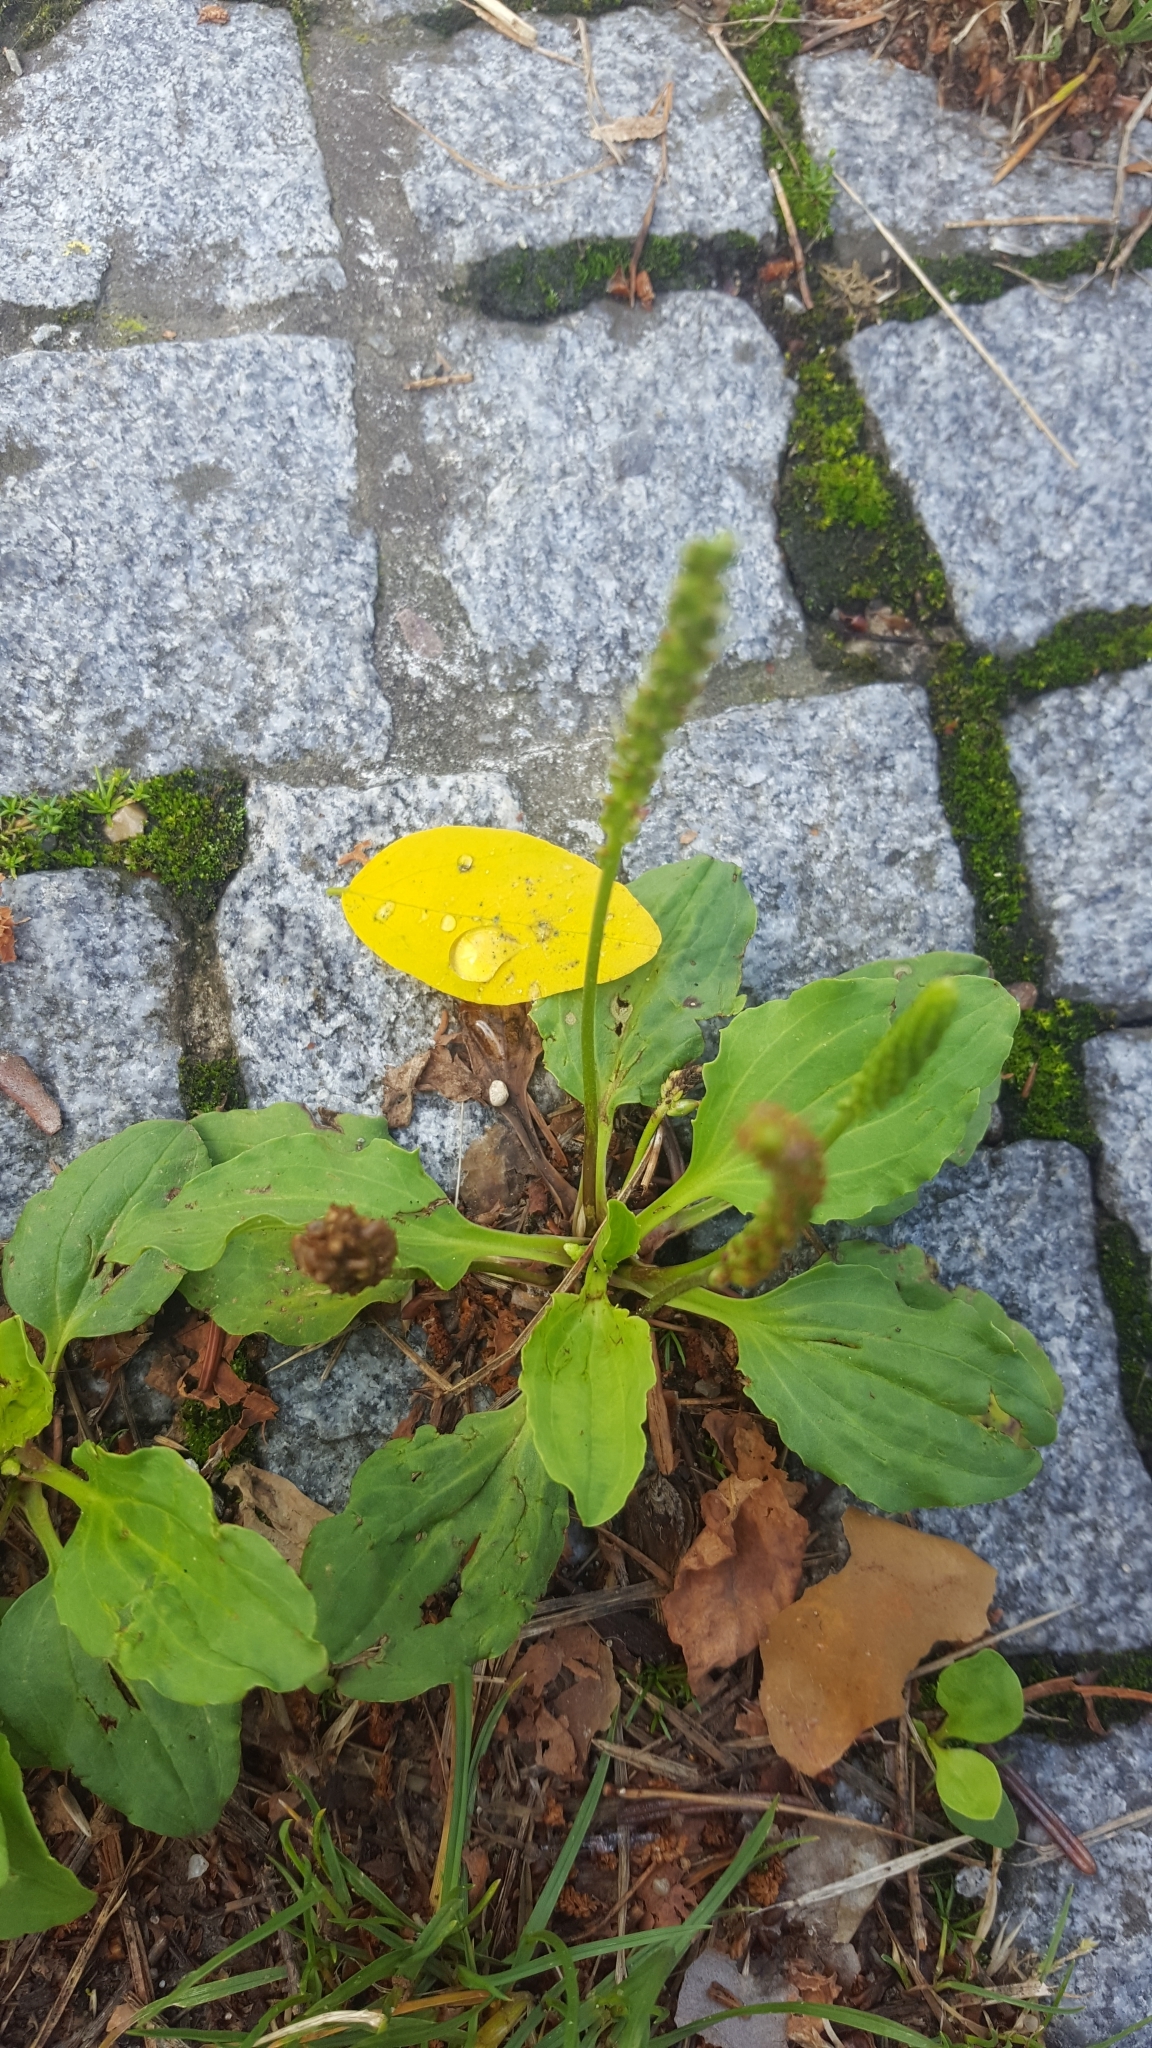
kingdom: Plantae
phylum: Tracheophyta
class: Magnoliopsida
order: Lamiales
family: Plantaginaceae
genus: Plantago
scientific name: Plantago major
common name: Common plantain
